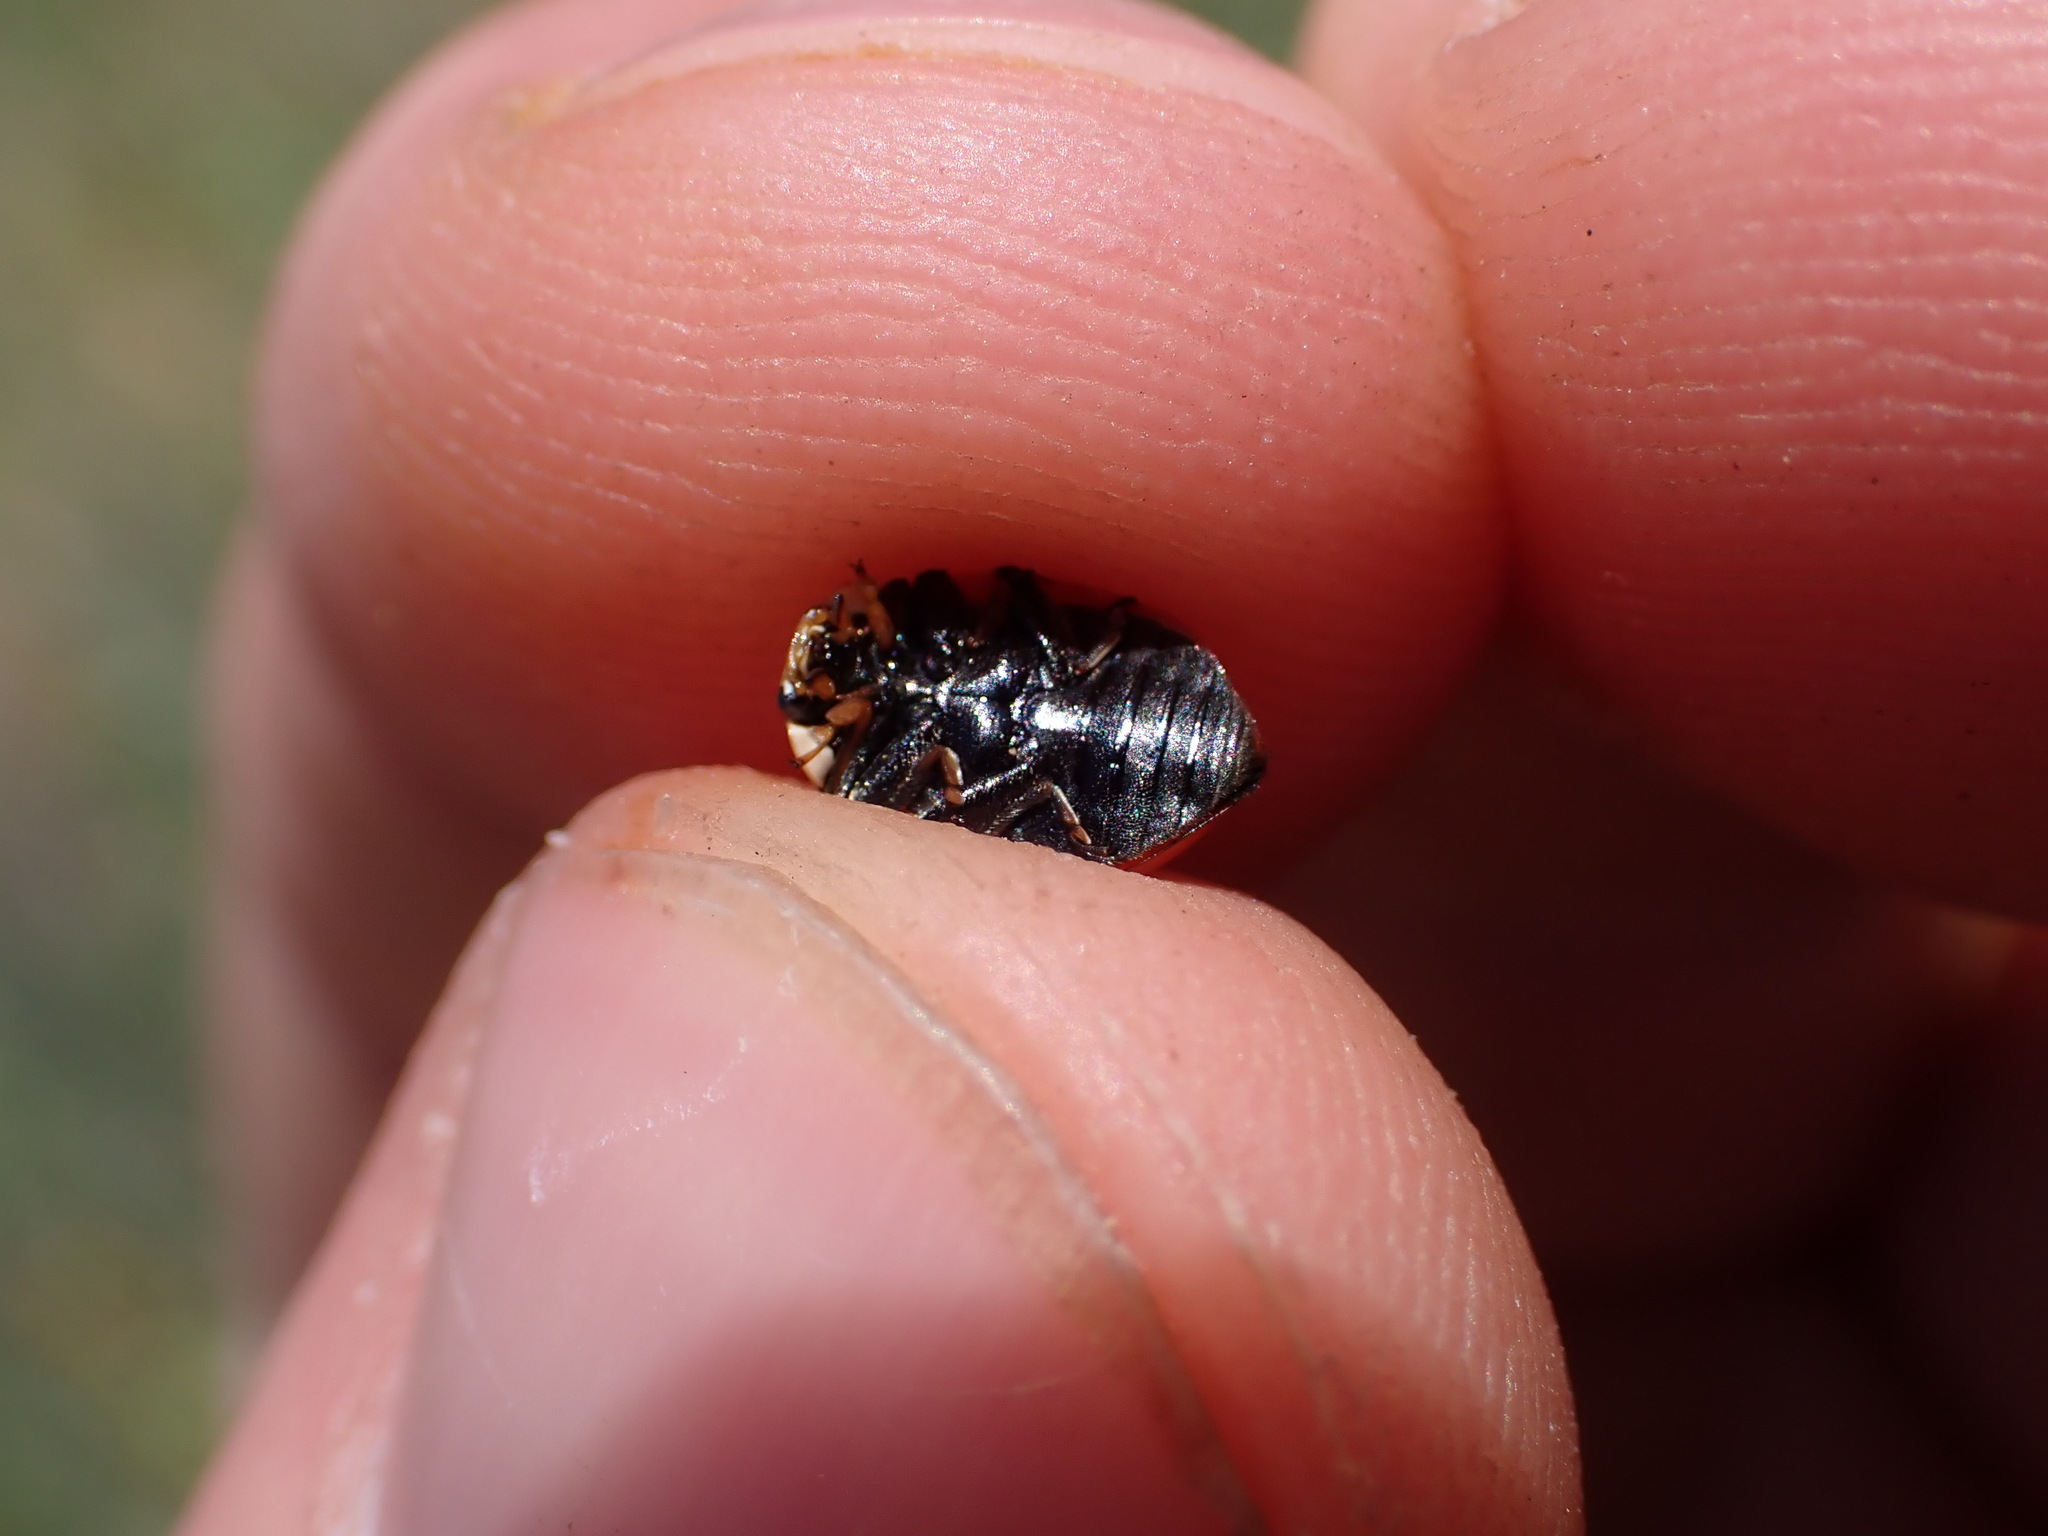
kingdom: Animalia
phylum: Arthropoda
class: Insecta
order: Coleoptera
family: Coccinellidae
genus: Ceratomegilla
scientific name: Ceratomegilla undecimnotata
